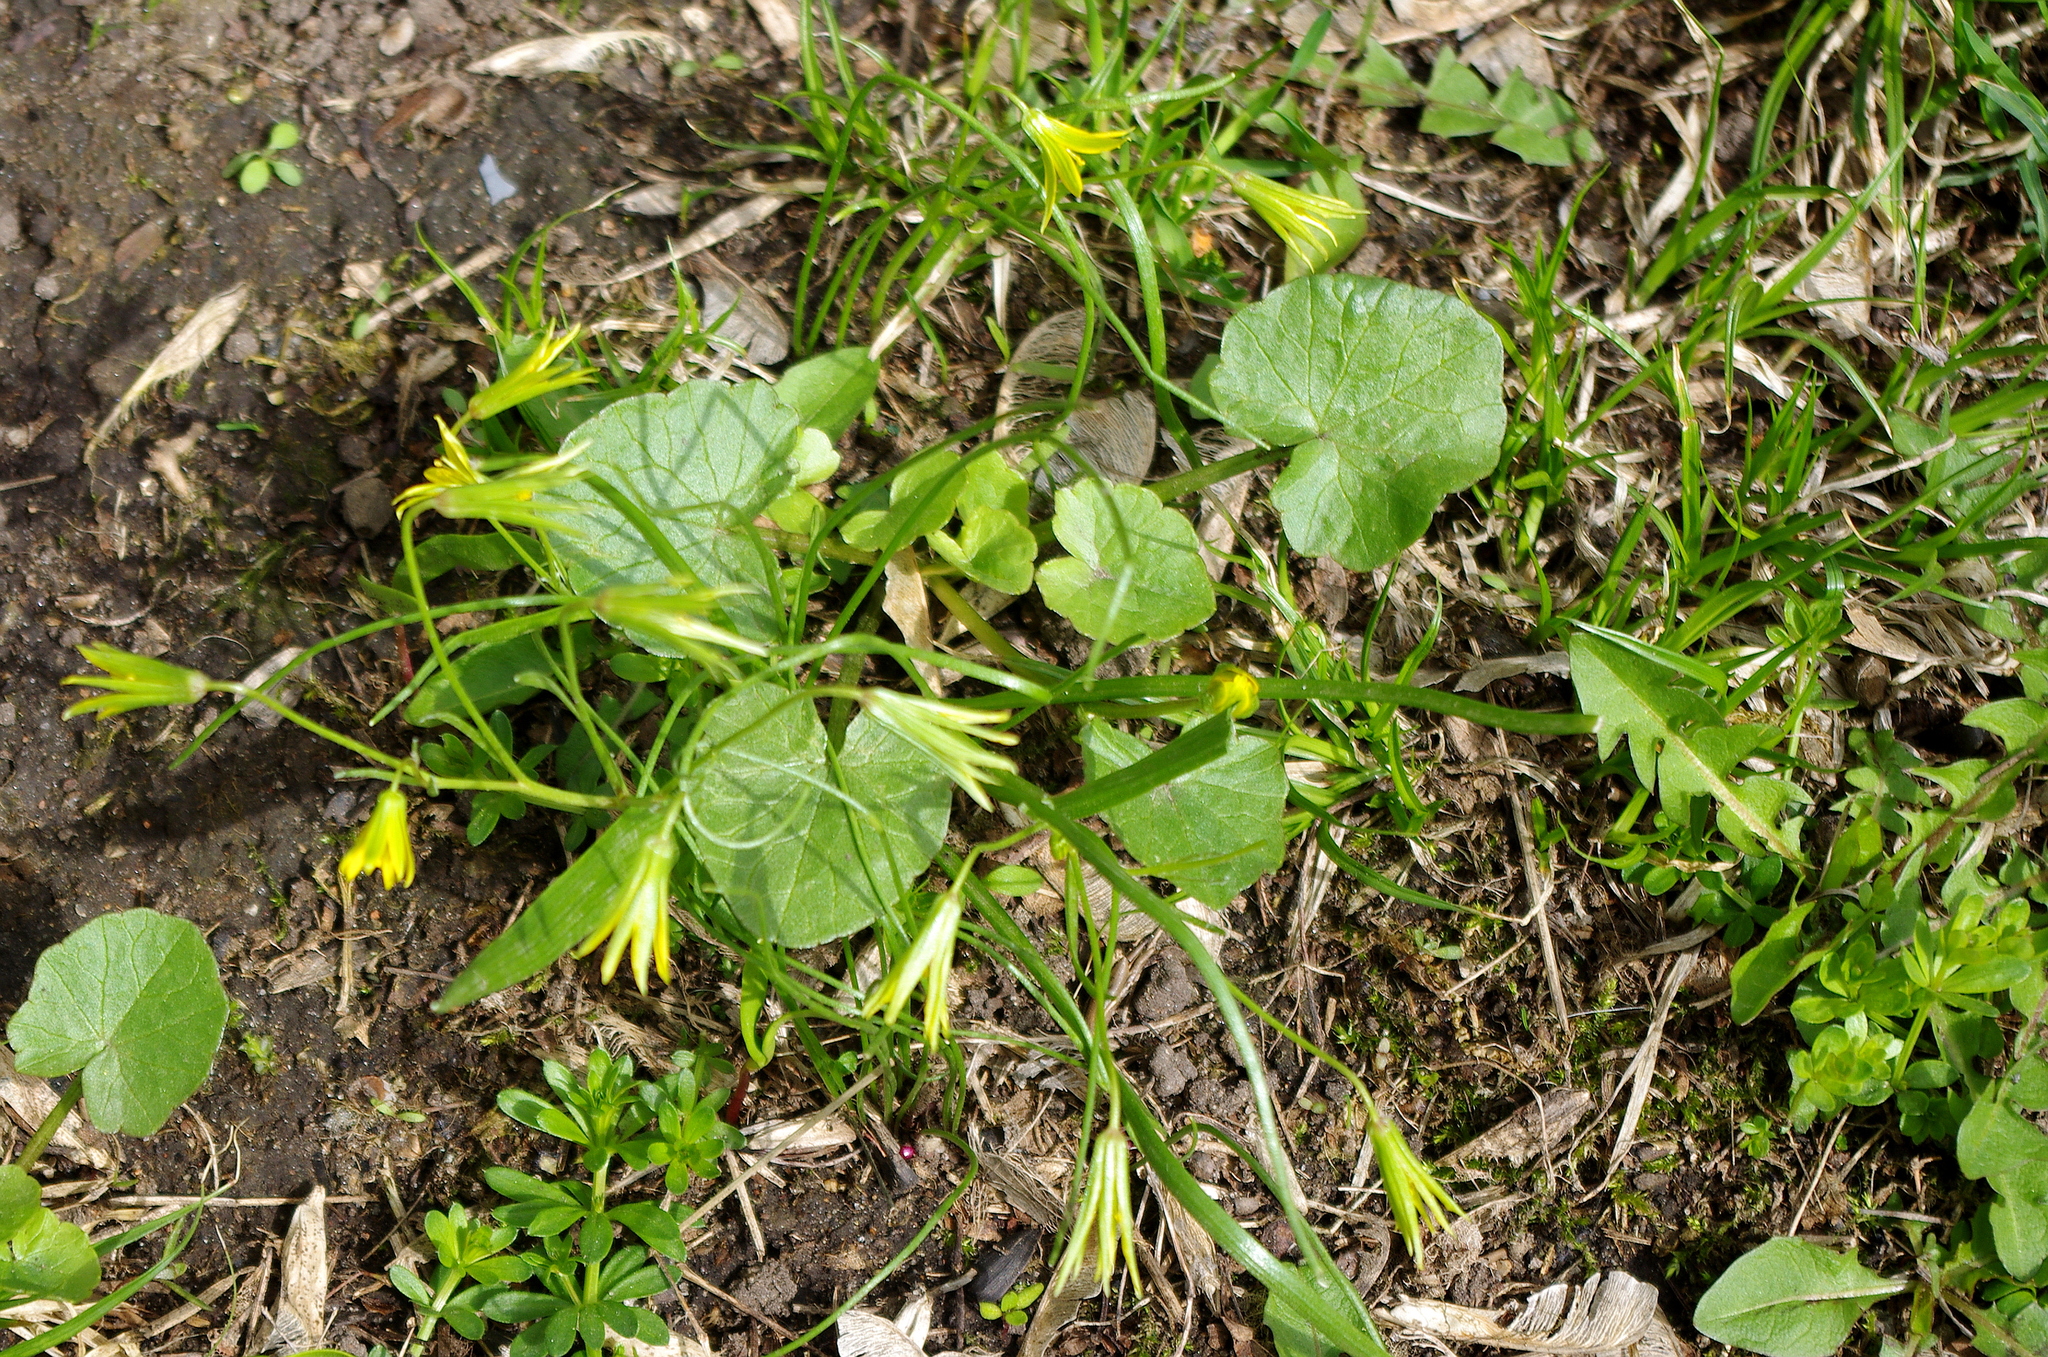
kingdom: Plantae
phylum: Tracheophyta
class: Liliopsida
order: Liliales
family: Liliaceae
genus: Gagea
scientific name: Gagea minima
